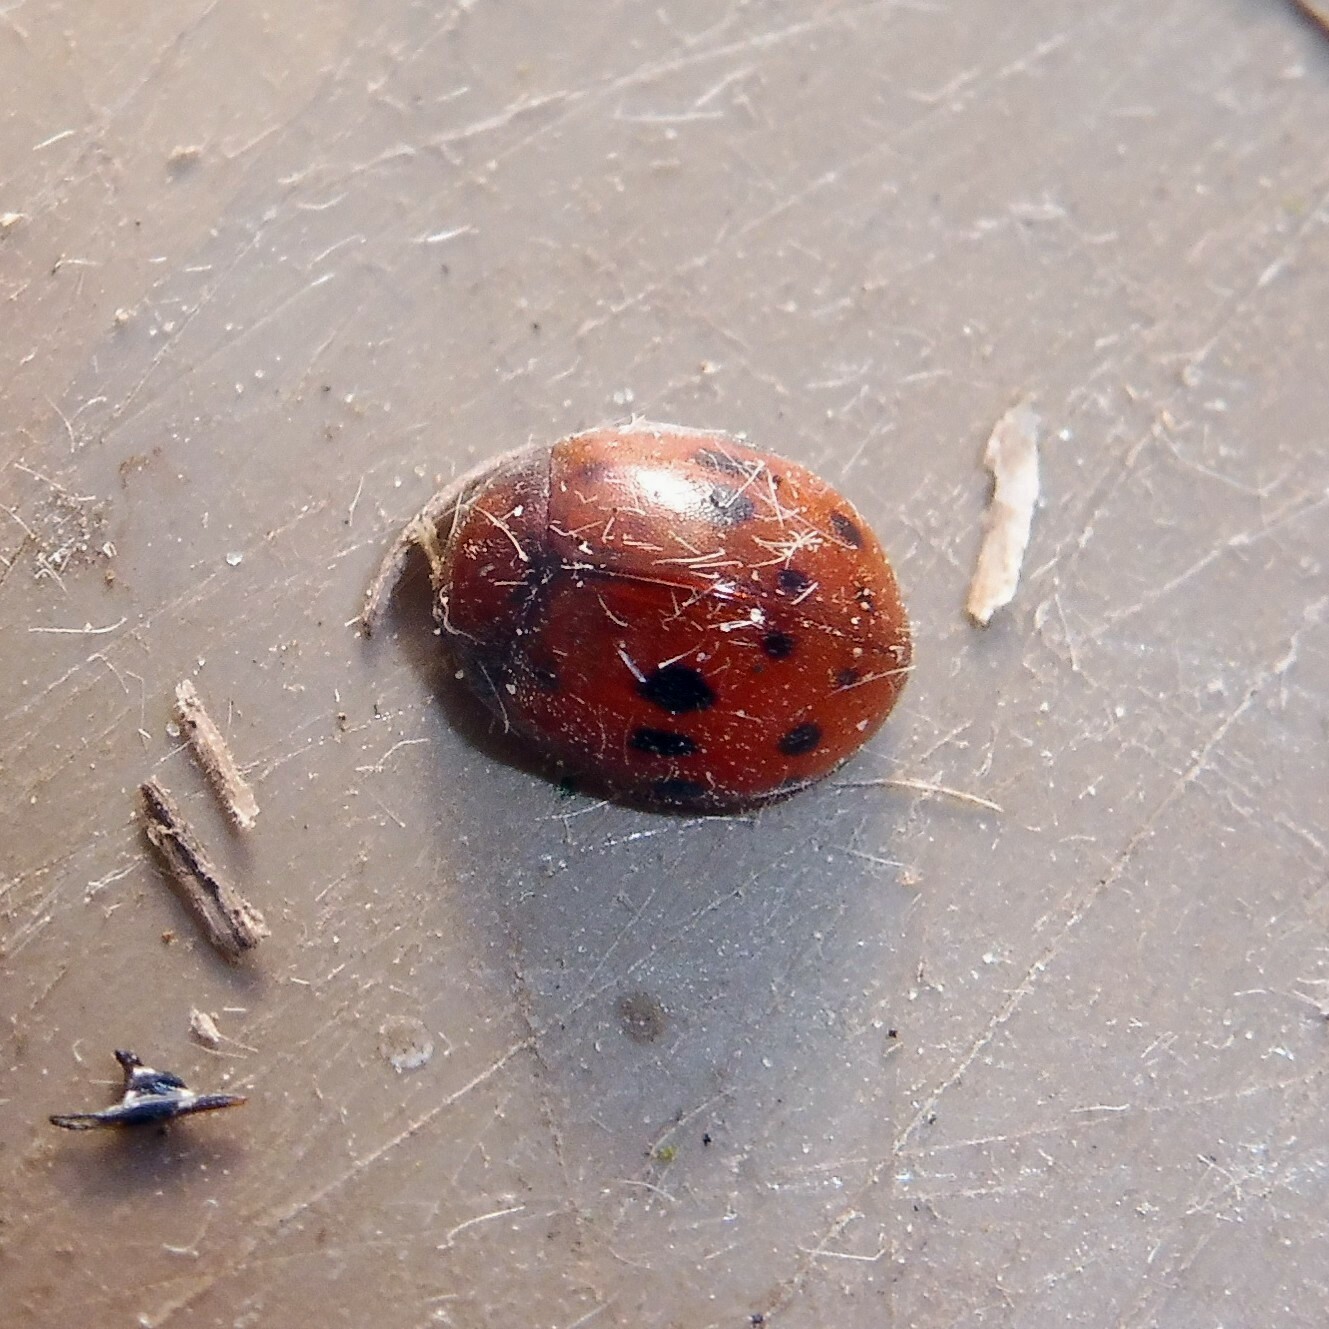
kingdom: Animalia
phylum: Arthropoda
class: Insecta
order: Coleoptera
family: Coccinellidae
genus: Subcoccinella
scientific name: Subcoccinella vigintiquatuorpunctata
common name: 24-spot ladybird
